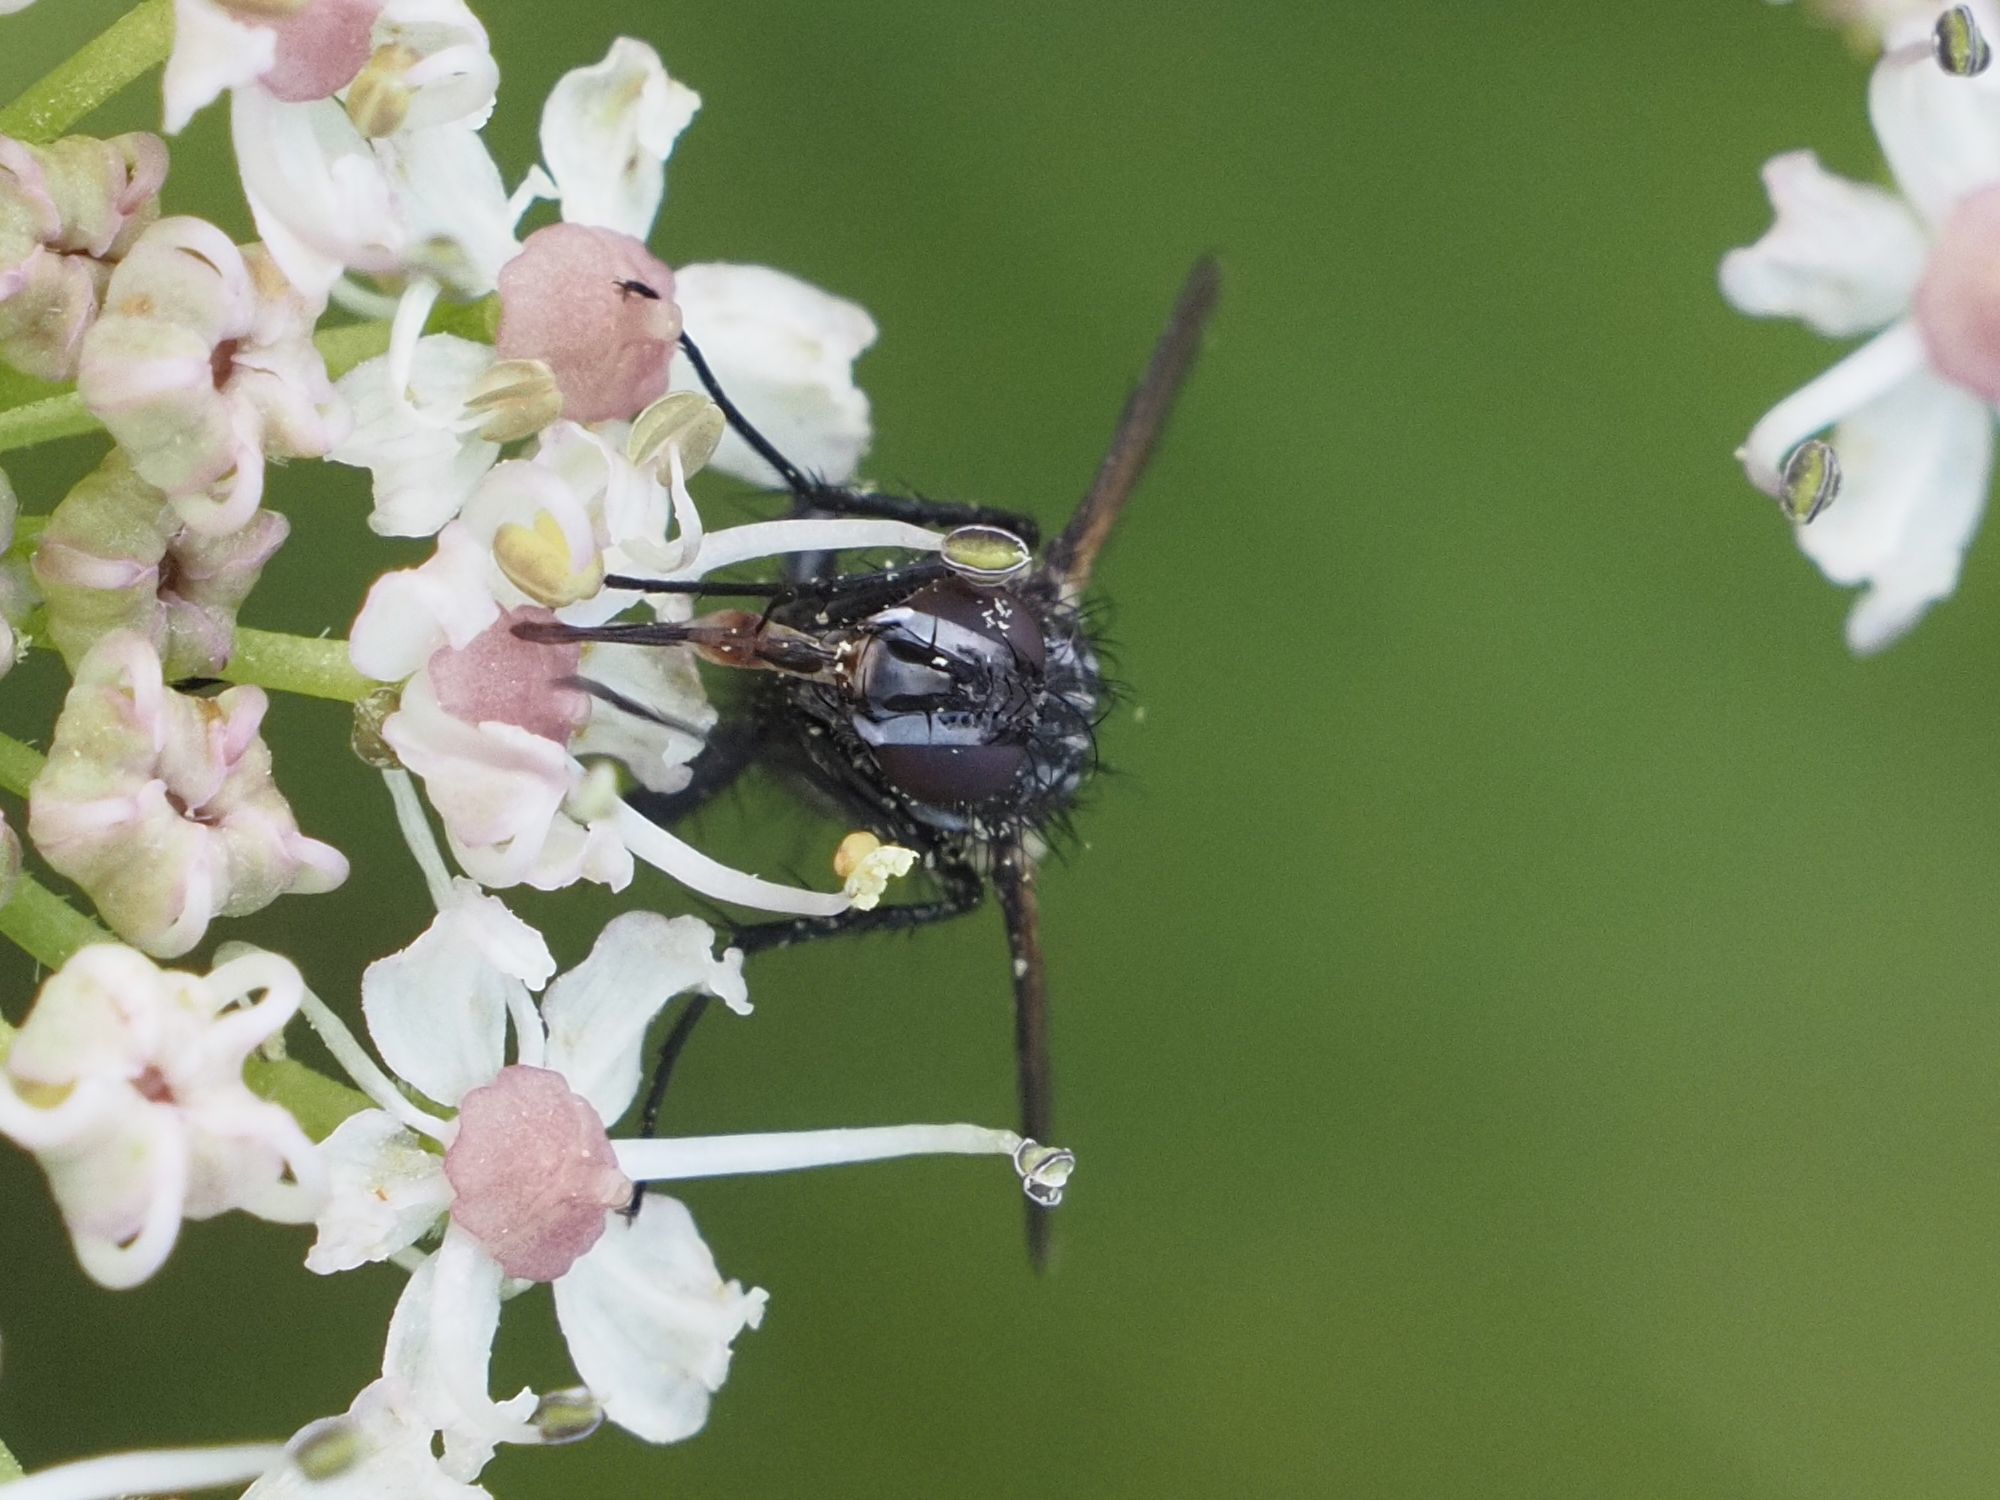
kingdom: Animalia
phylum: Arthropoda
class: Insecta
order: Diptera
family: Tachinidae
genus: Eriothrix
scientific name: Eriothrix rufomaculatus
